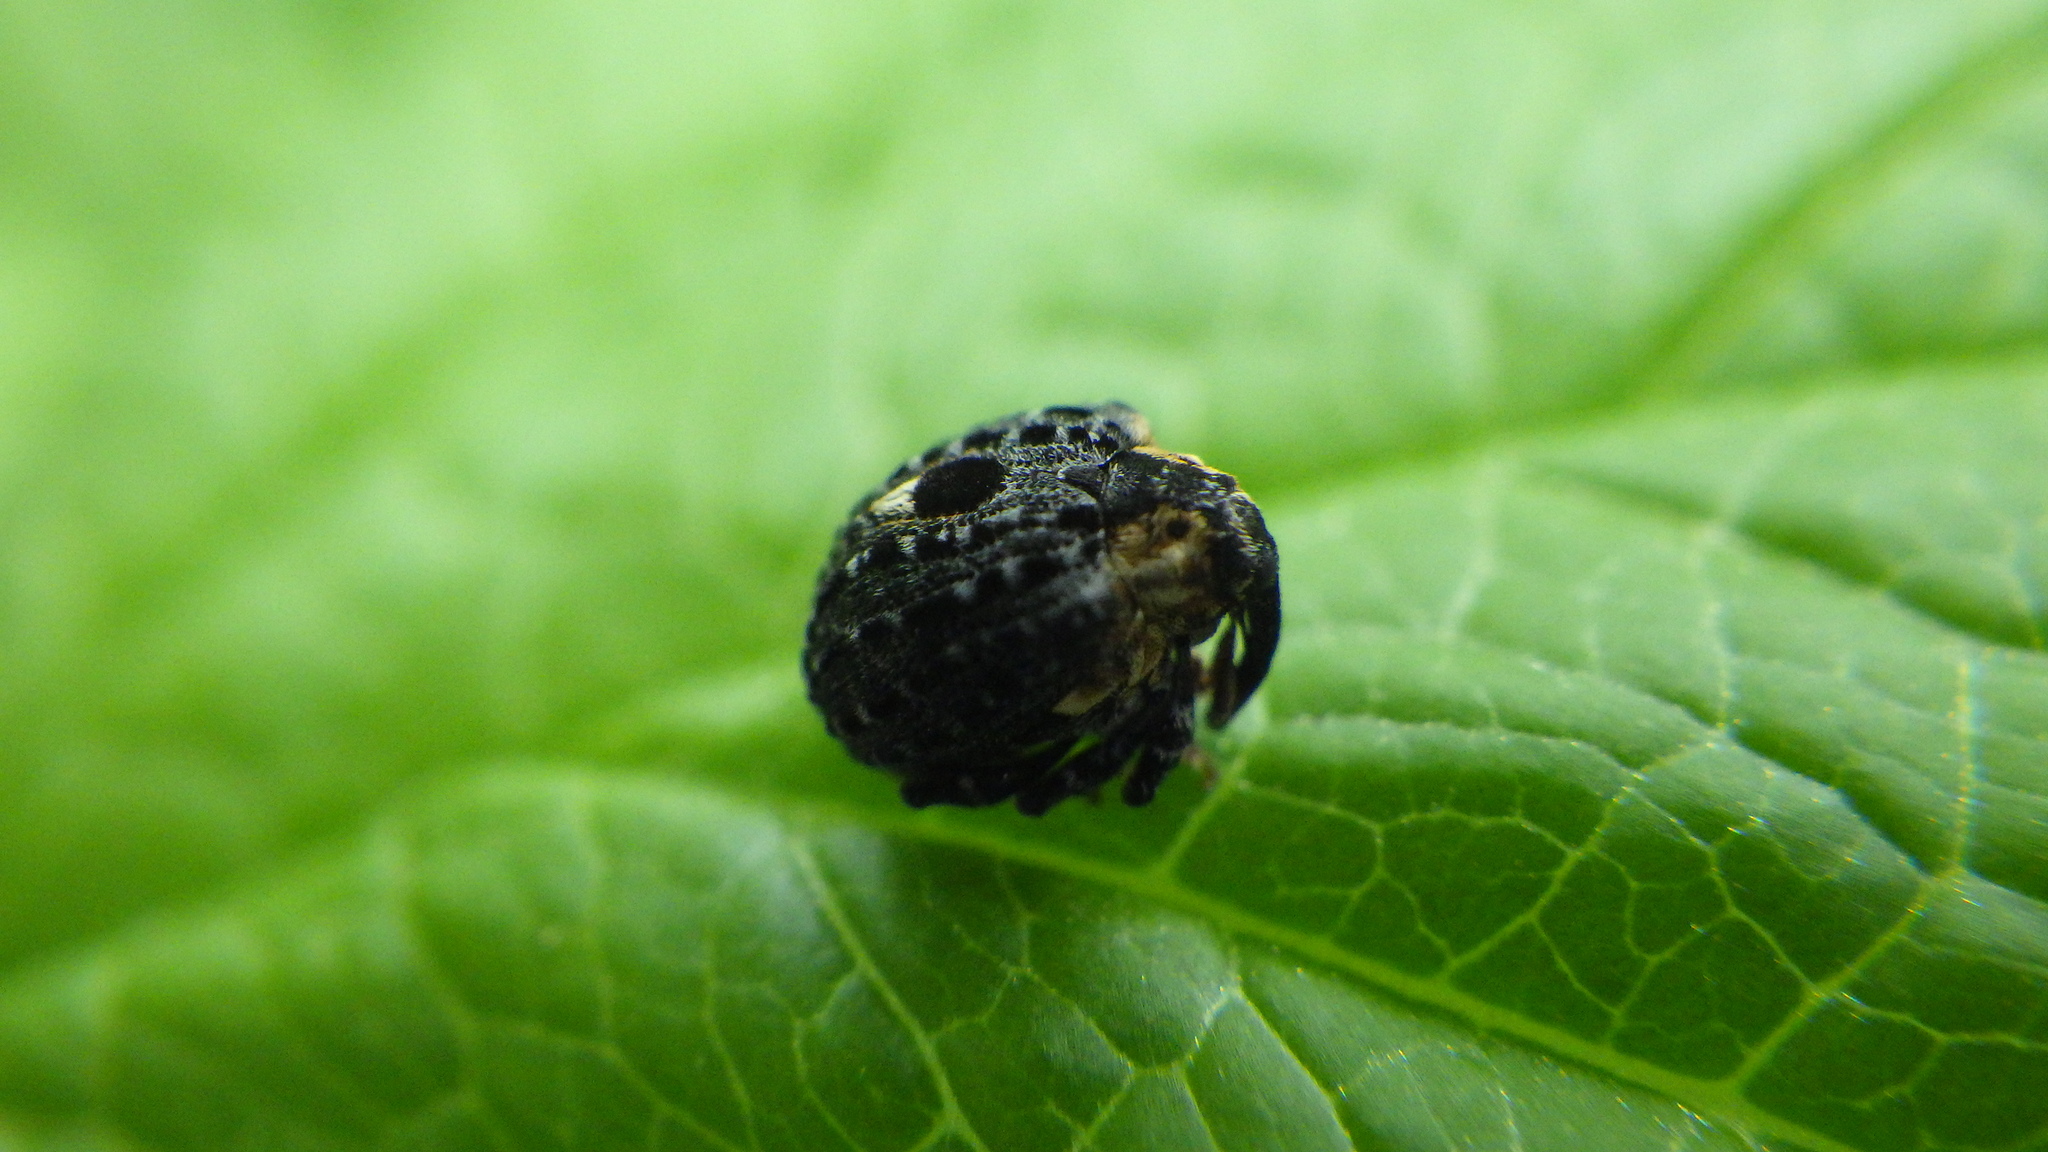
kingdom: Animalia
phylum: Arthropoda
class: Insecta
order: Coleoptera
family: Curculionidae
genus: Cionus
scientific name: Cionus tuberculosus
